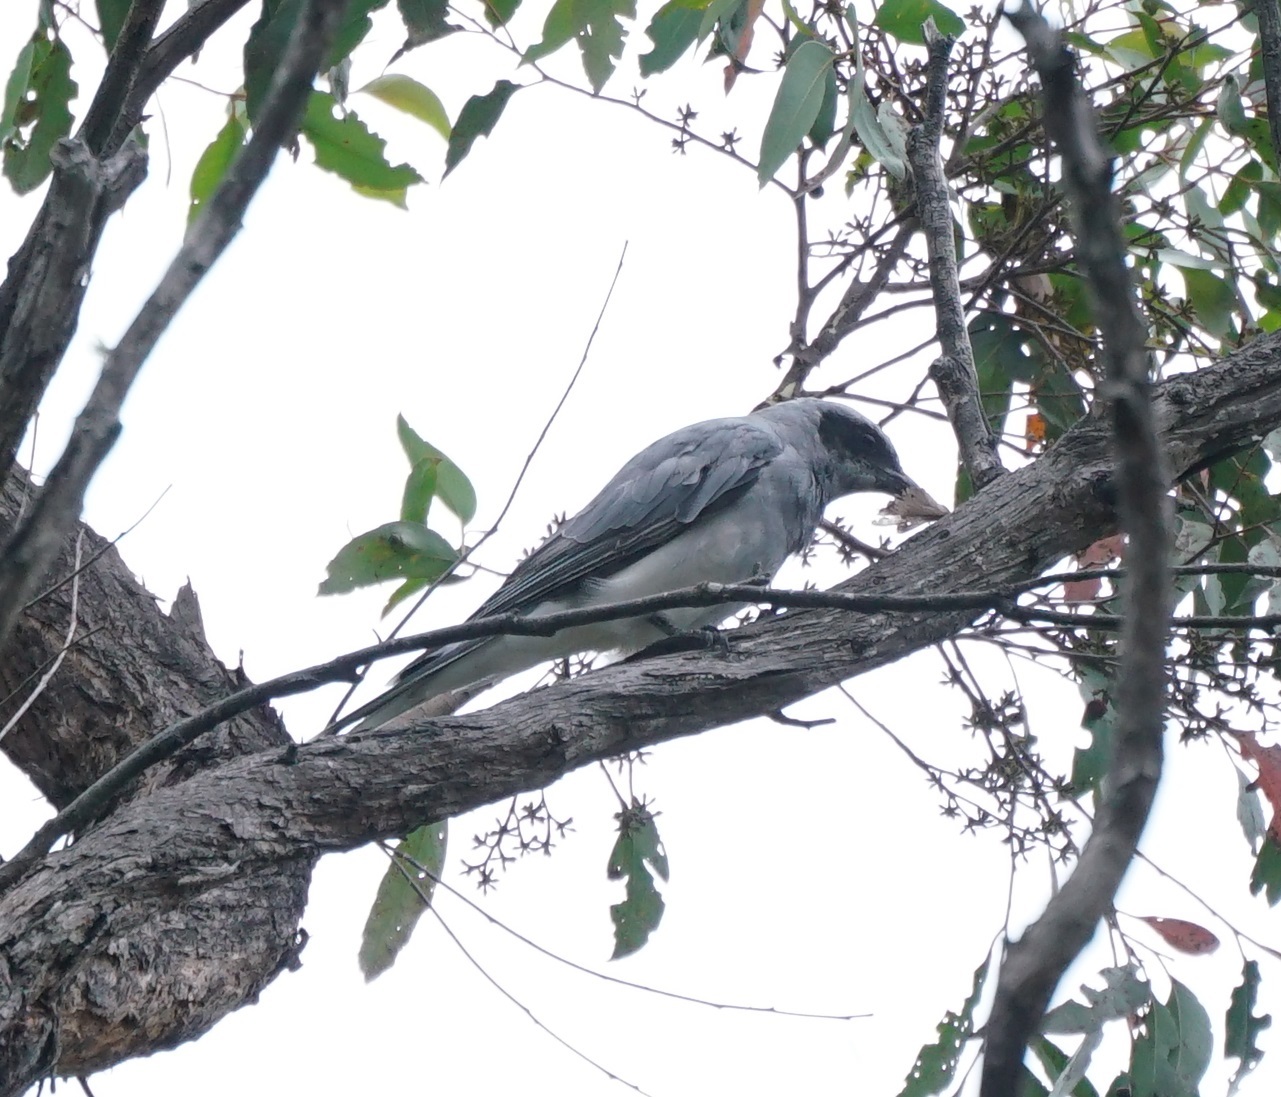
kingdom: Animalia
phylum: Chordata
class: Aves
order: Passeriformes
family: Campephagidae
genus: Coracina
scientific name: Coracina novaehollandiae
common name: Black-faced cuckooshrike
